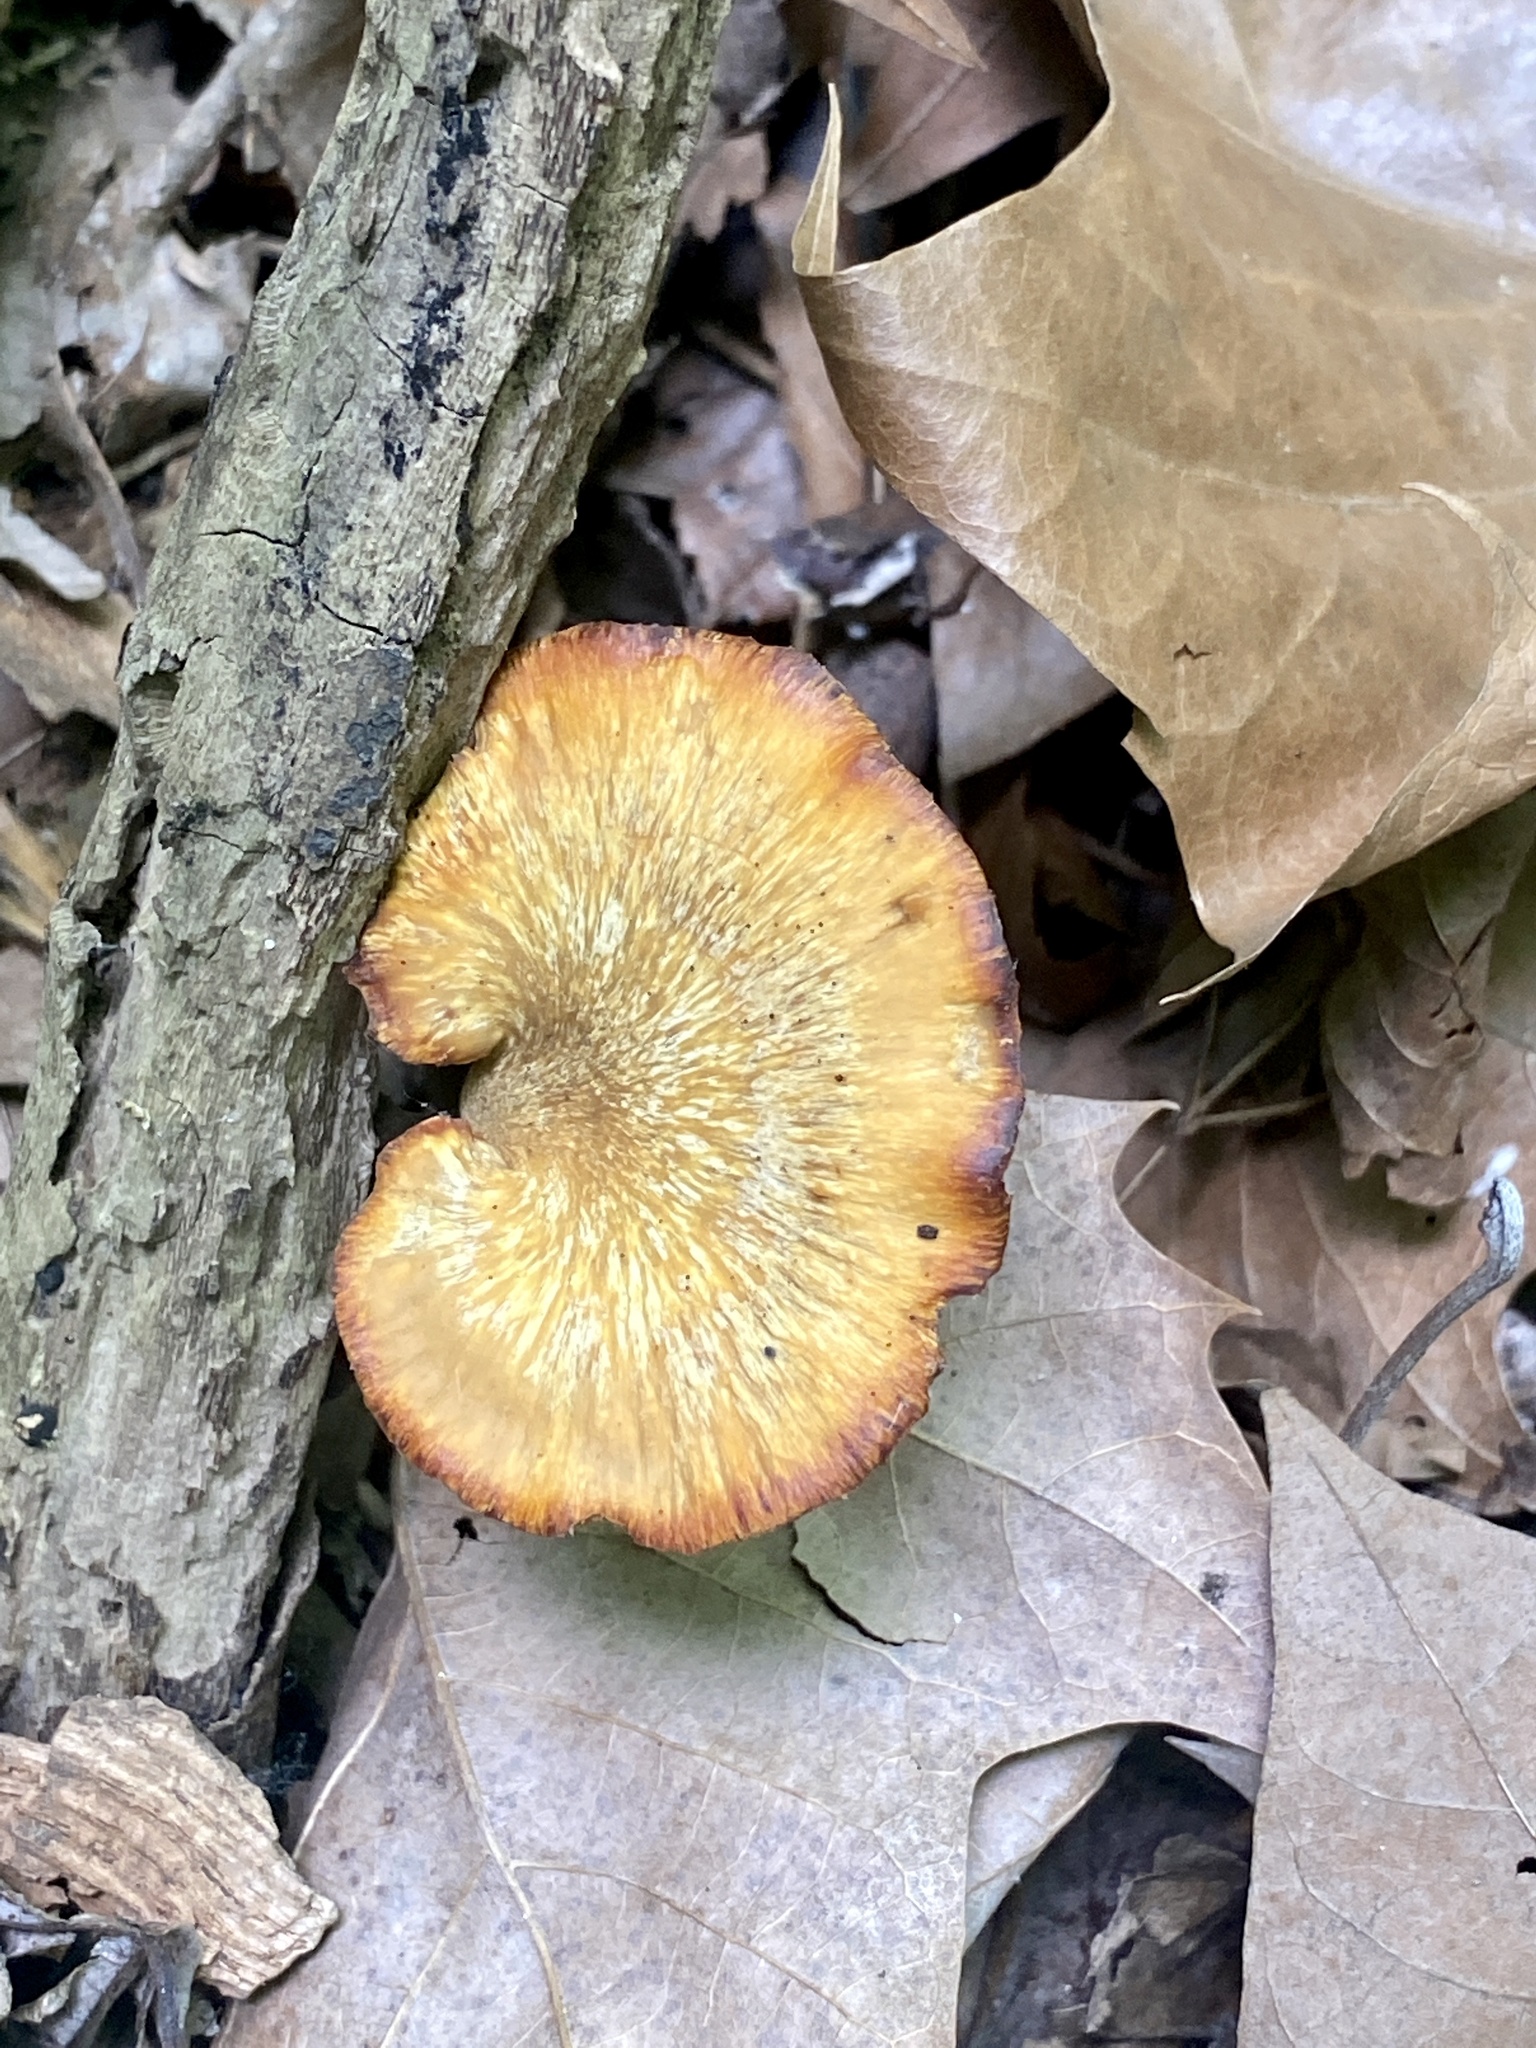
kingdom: Fungi
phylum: Basidiomycota
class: Agaricomycetes
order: Polyporales
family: Polyporaceae
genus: Cerioporus
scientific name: Cerioporus leptocephalus
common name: Blackfoot polypore
